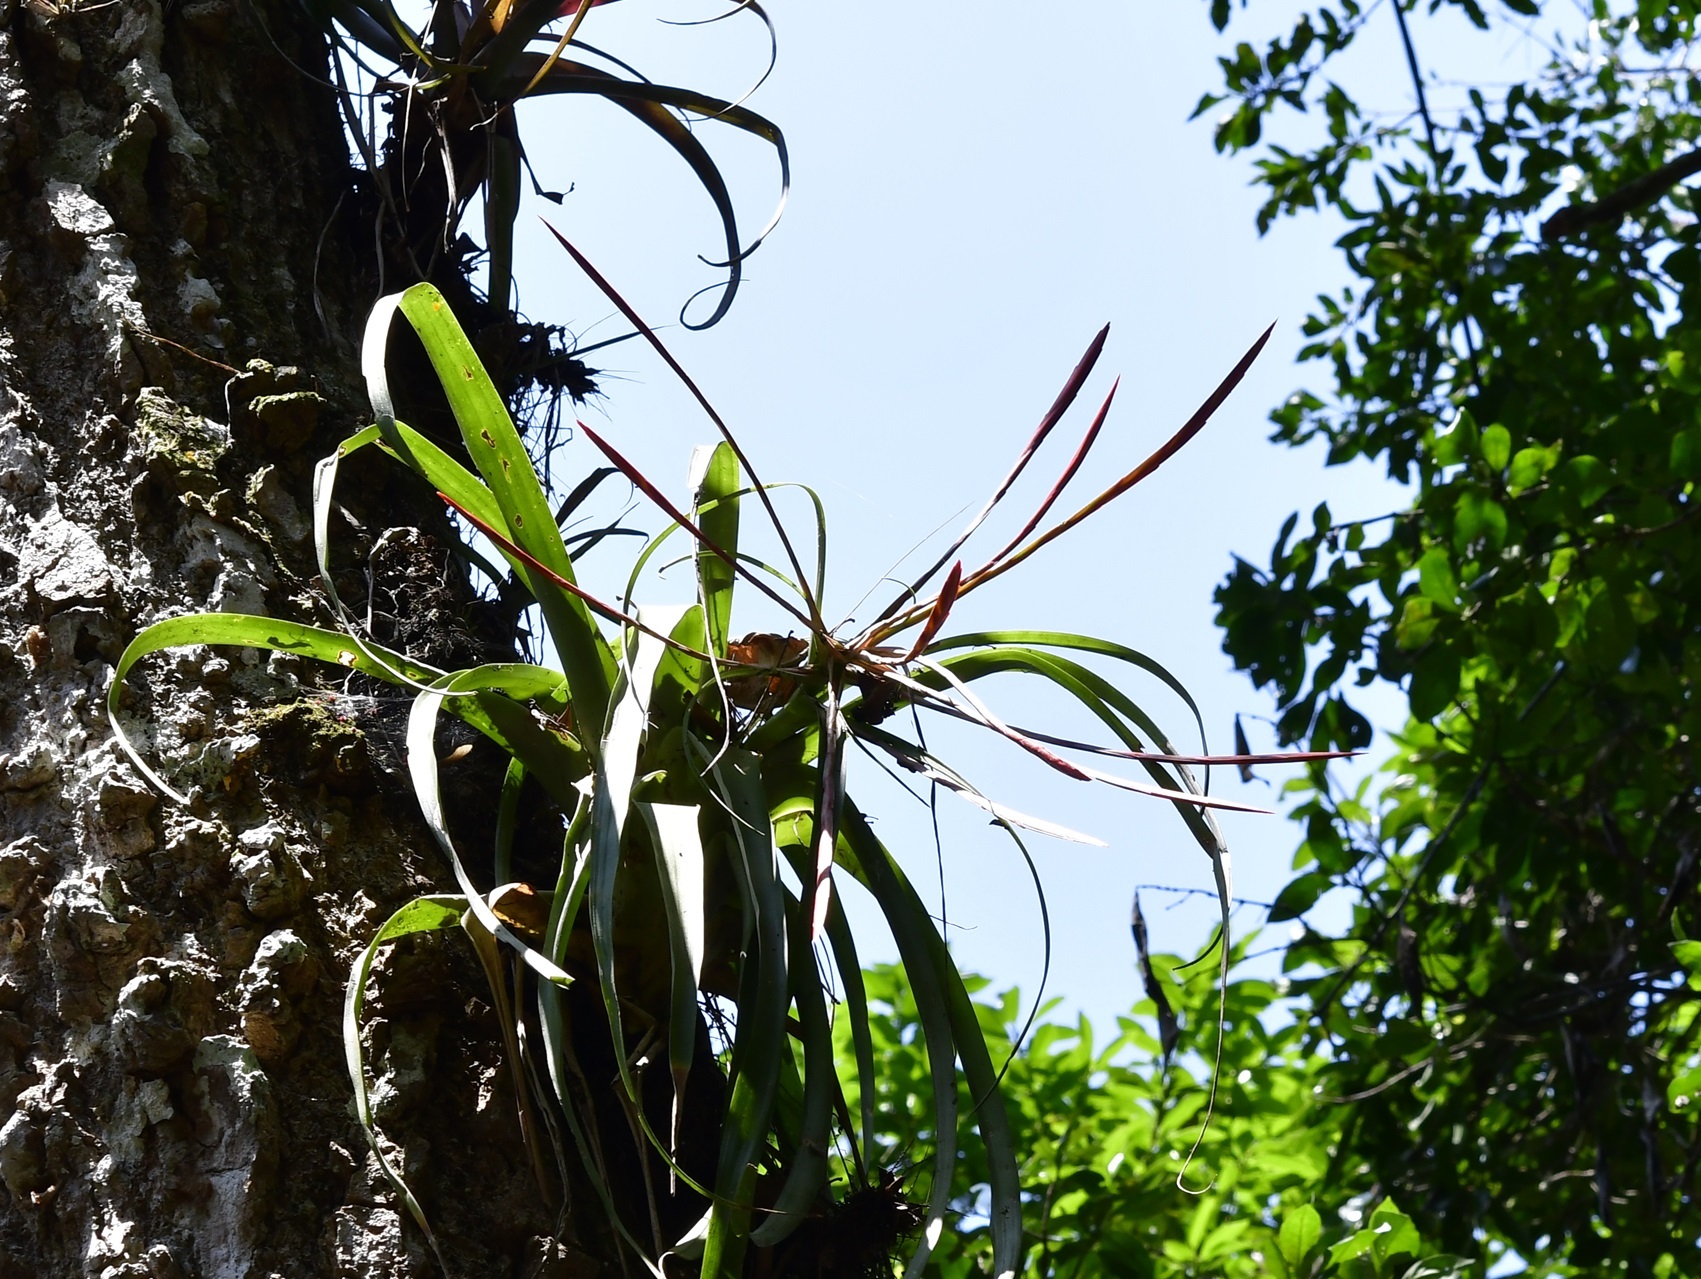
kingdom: Plantae
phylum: Tracheophyta
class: Liliopsida
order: Poales
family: Bromeliaceae
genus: Tillandsia
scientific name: Tillandsia flabellata
